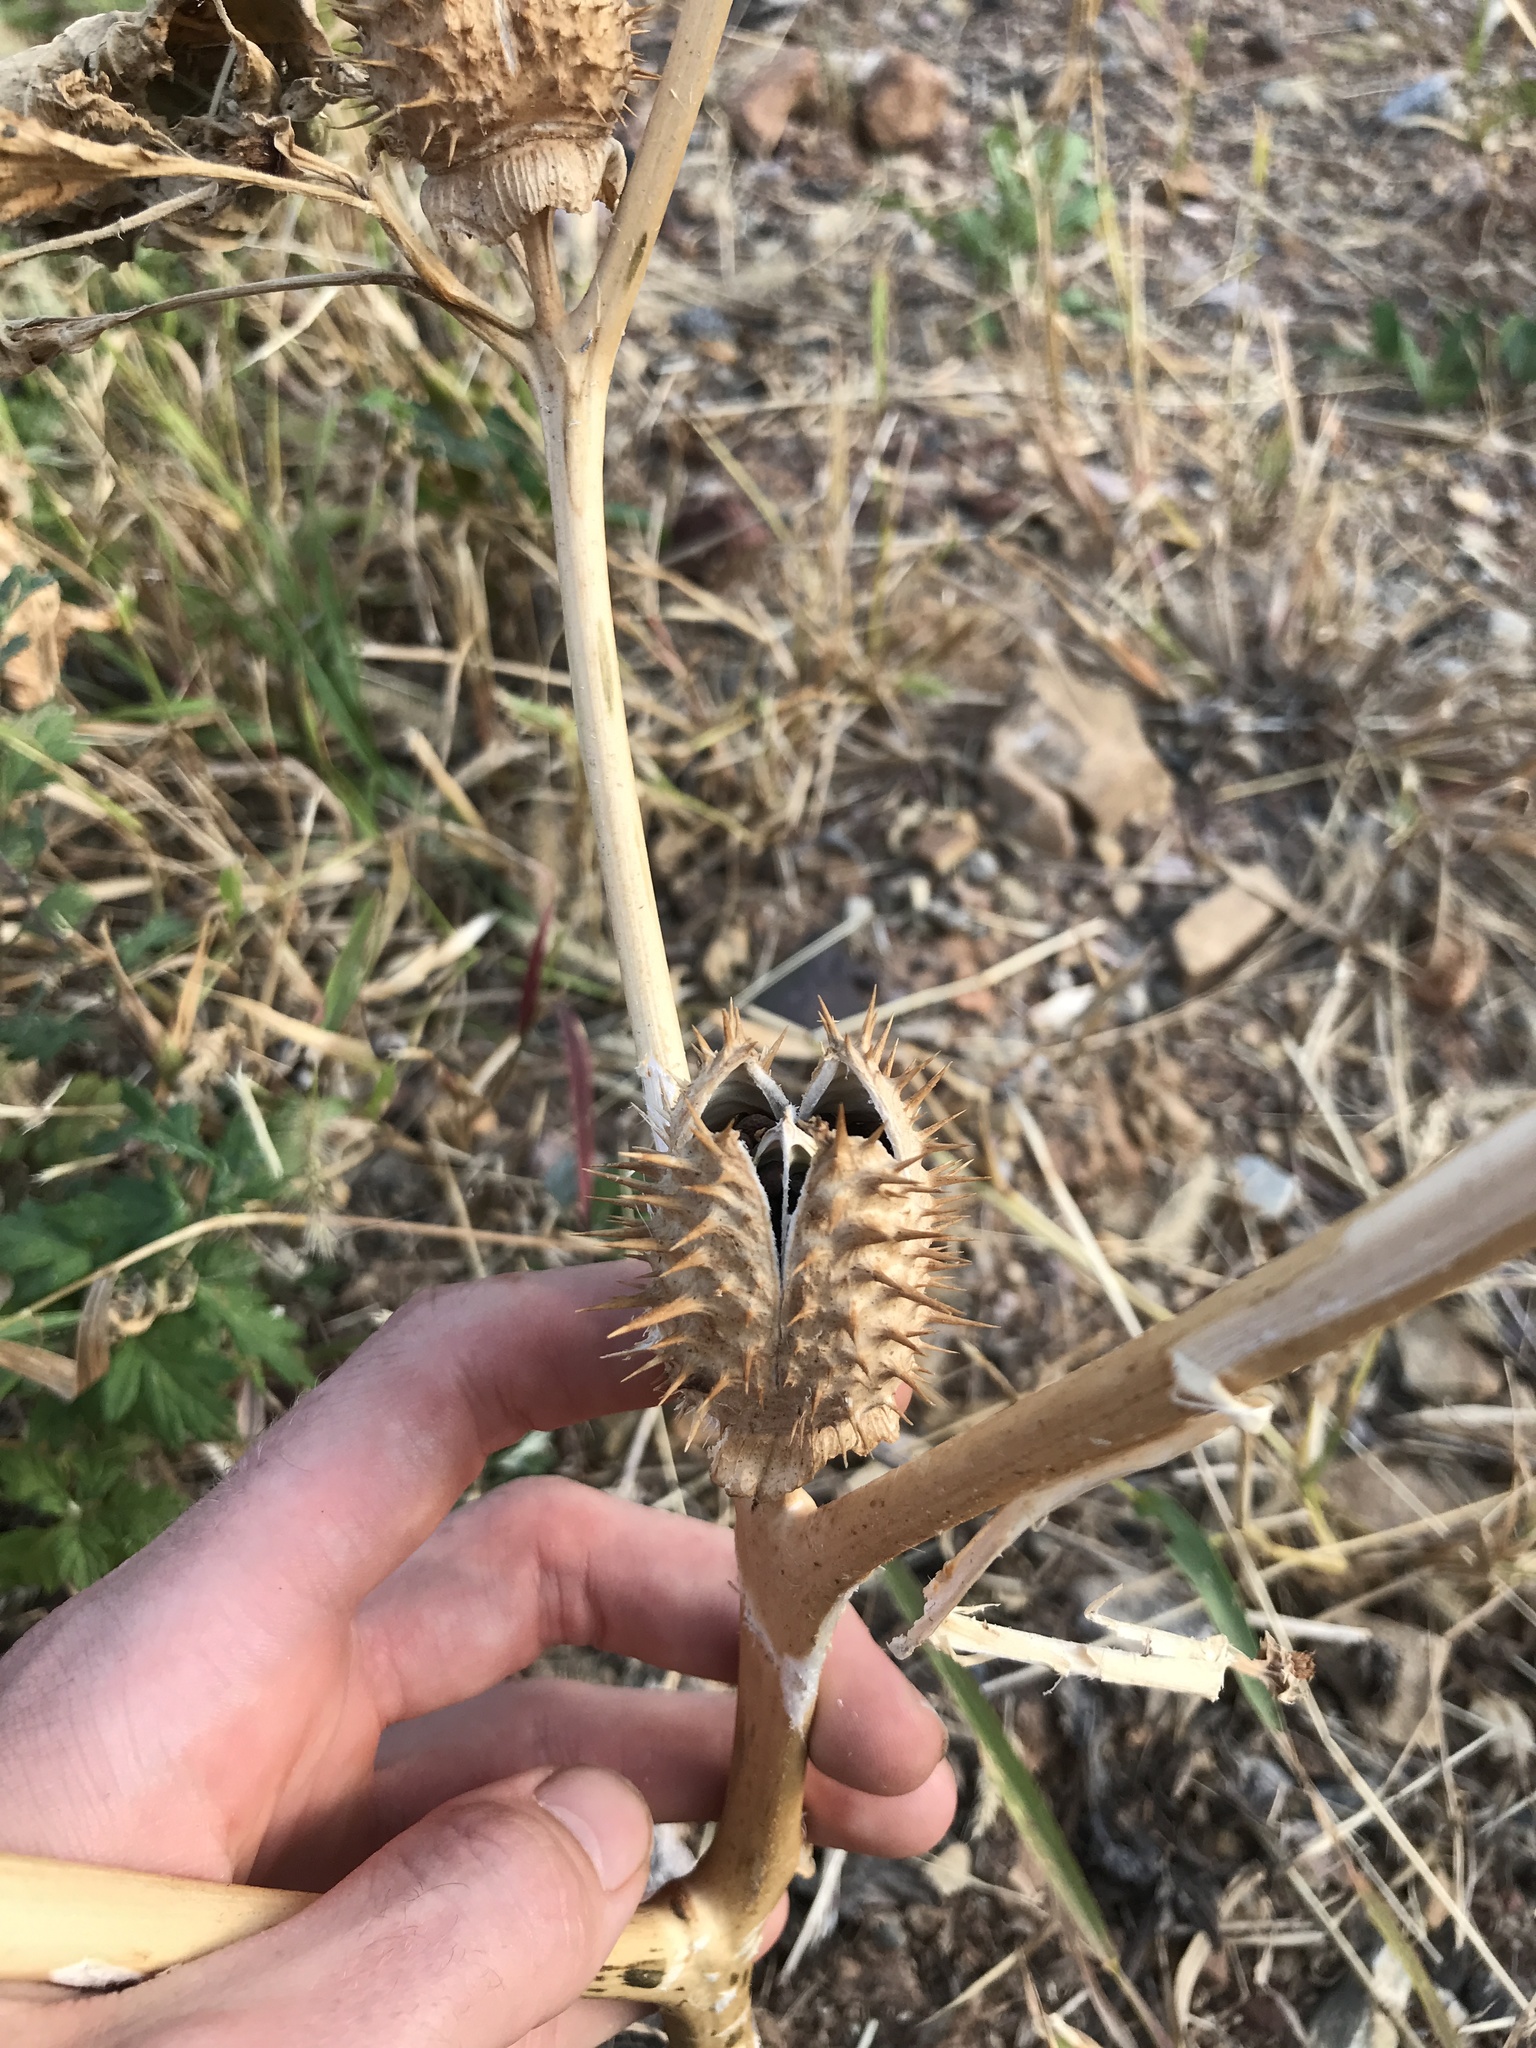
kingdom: Plantae
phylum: Tracheophyta
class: Magnoliopsida
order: Solanales
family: Solanaceae
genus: Datura
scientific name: Datura stramonium
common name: Thorn-apple
